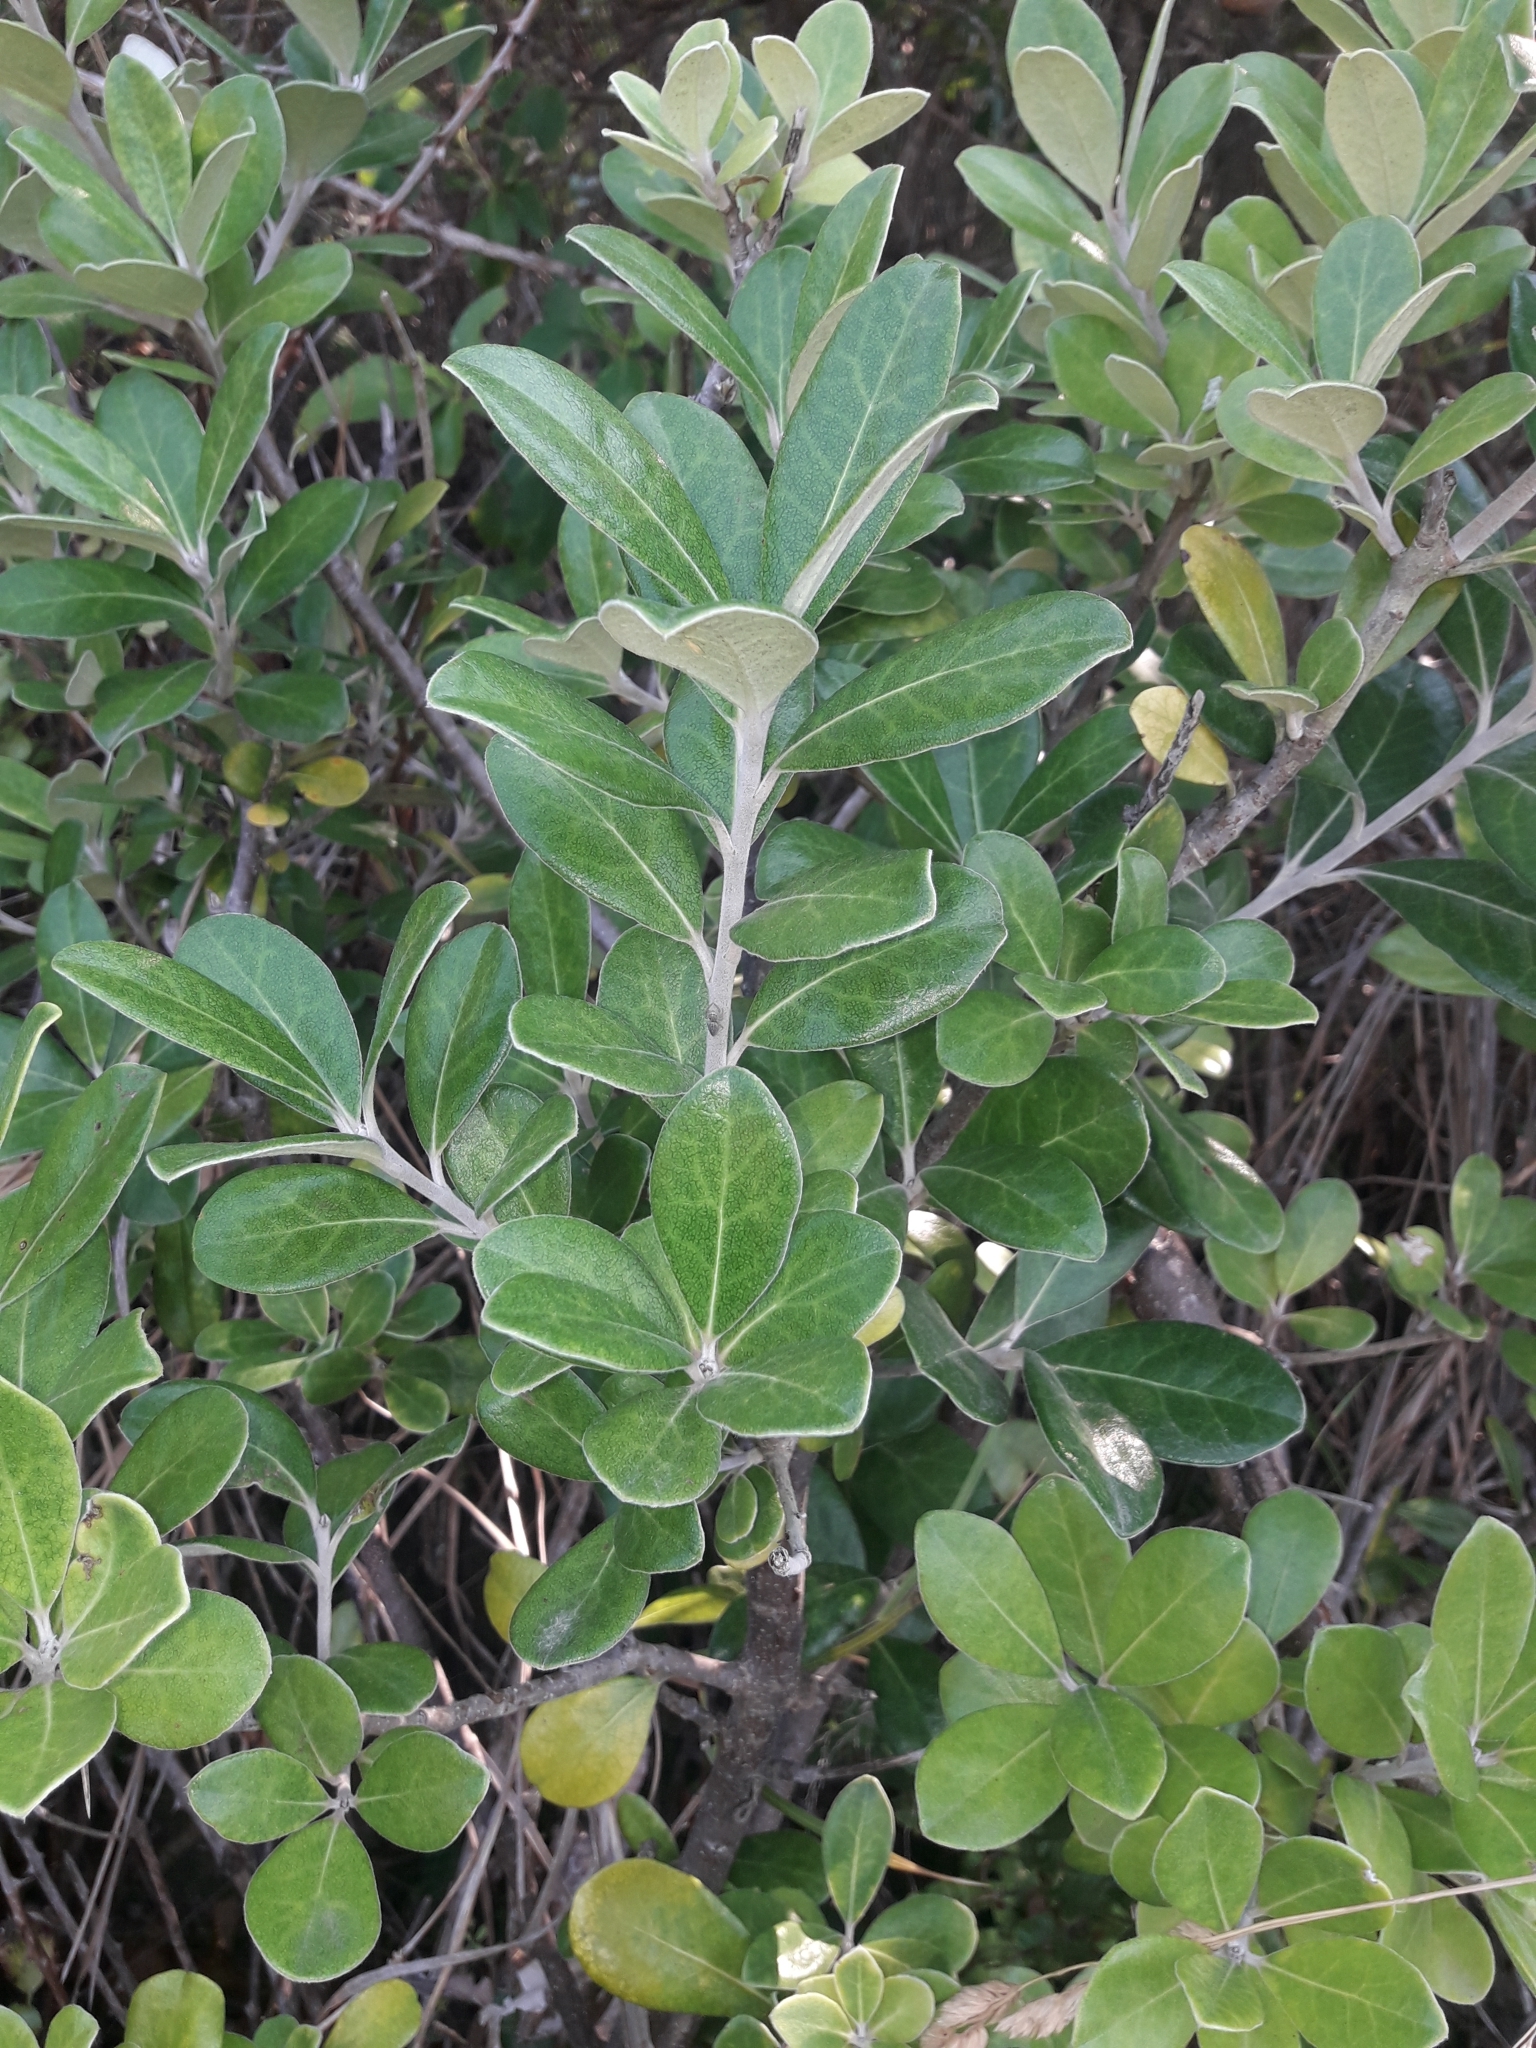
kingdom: Plantae
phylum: Tracheophyta
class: Magnoliopsida
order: Apiales
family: Pittosporaceae
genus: Pittosporum
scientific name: Pittosporum crassifolium
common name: Karo
